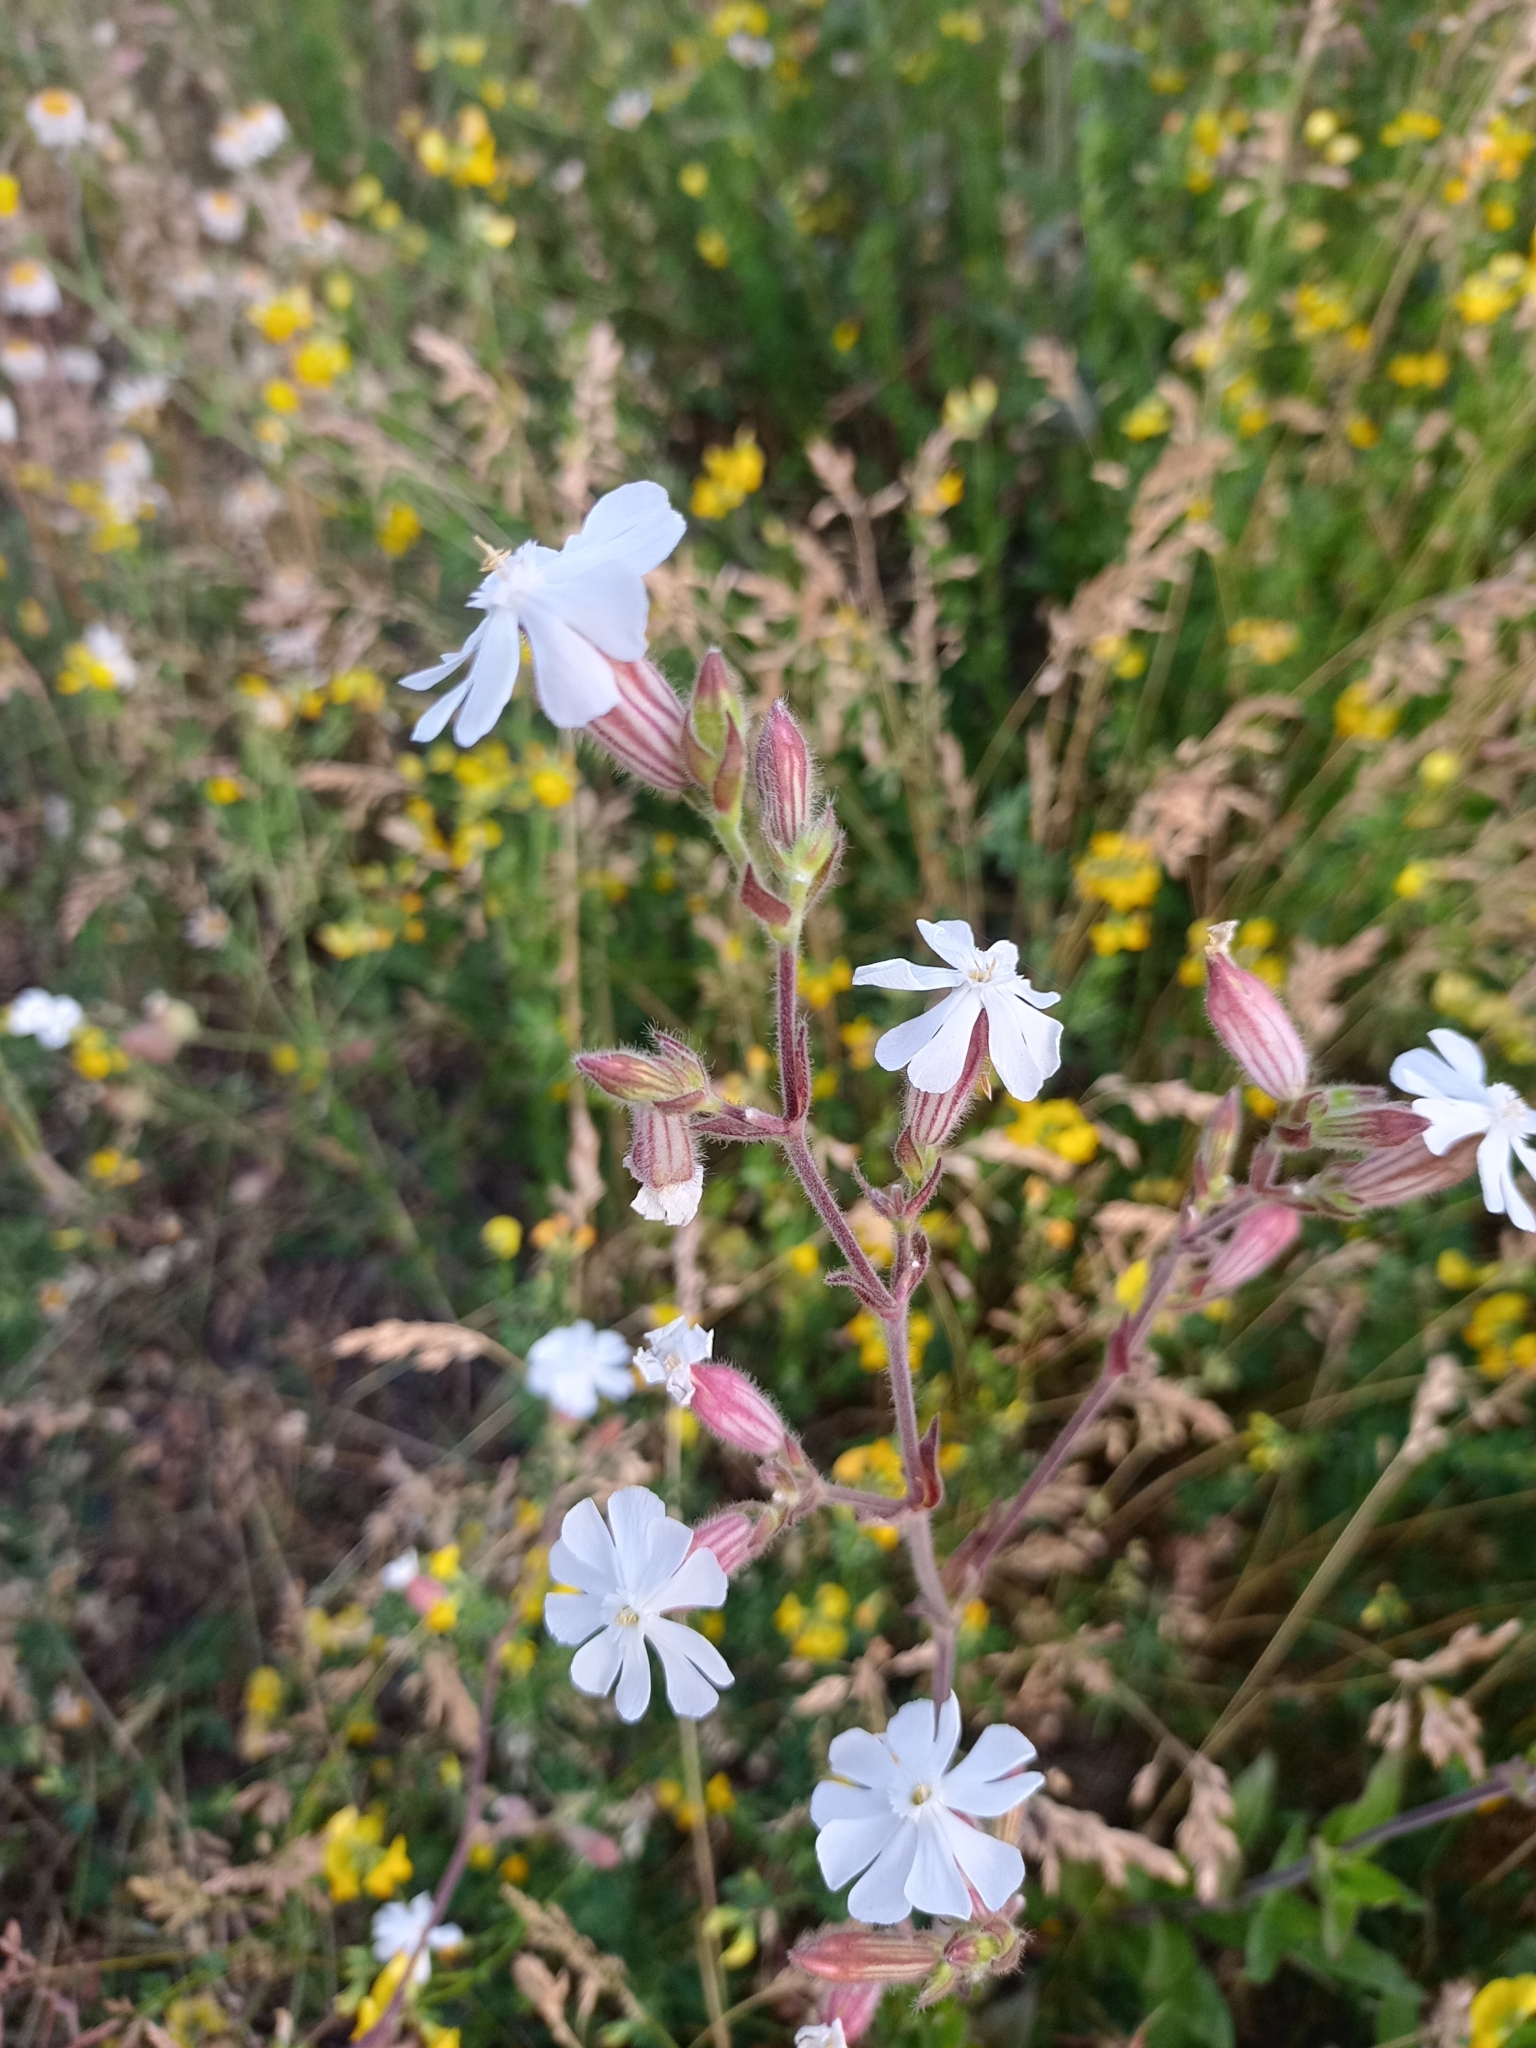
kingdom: Plantae
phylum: Tracheophyta
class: Magnoliopsida
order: Caryophyllales
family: Caryophyllaceae
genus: Silene
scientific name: Silene latifolia
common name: White campion
